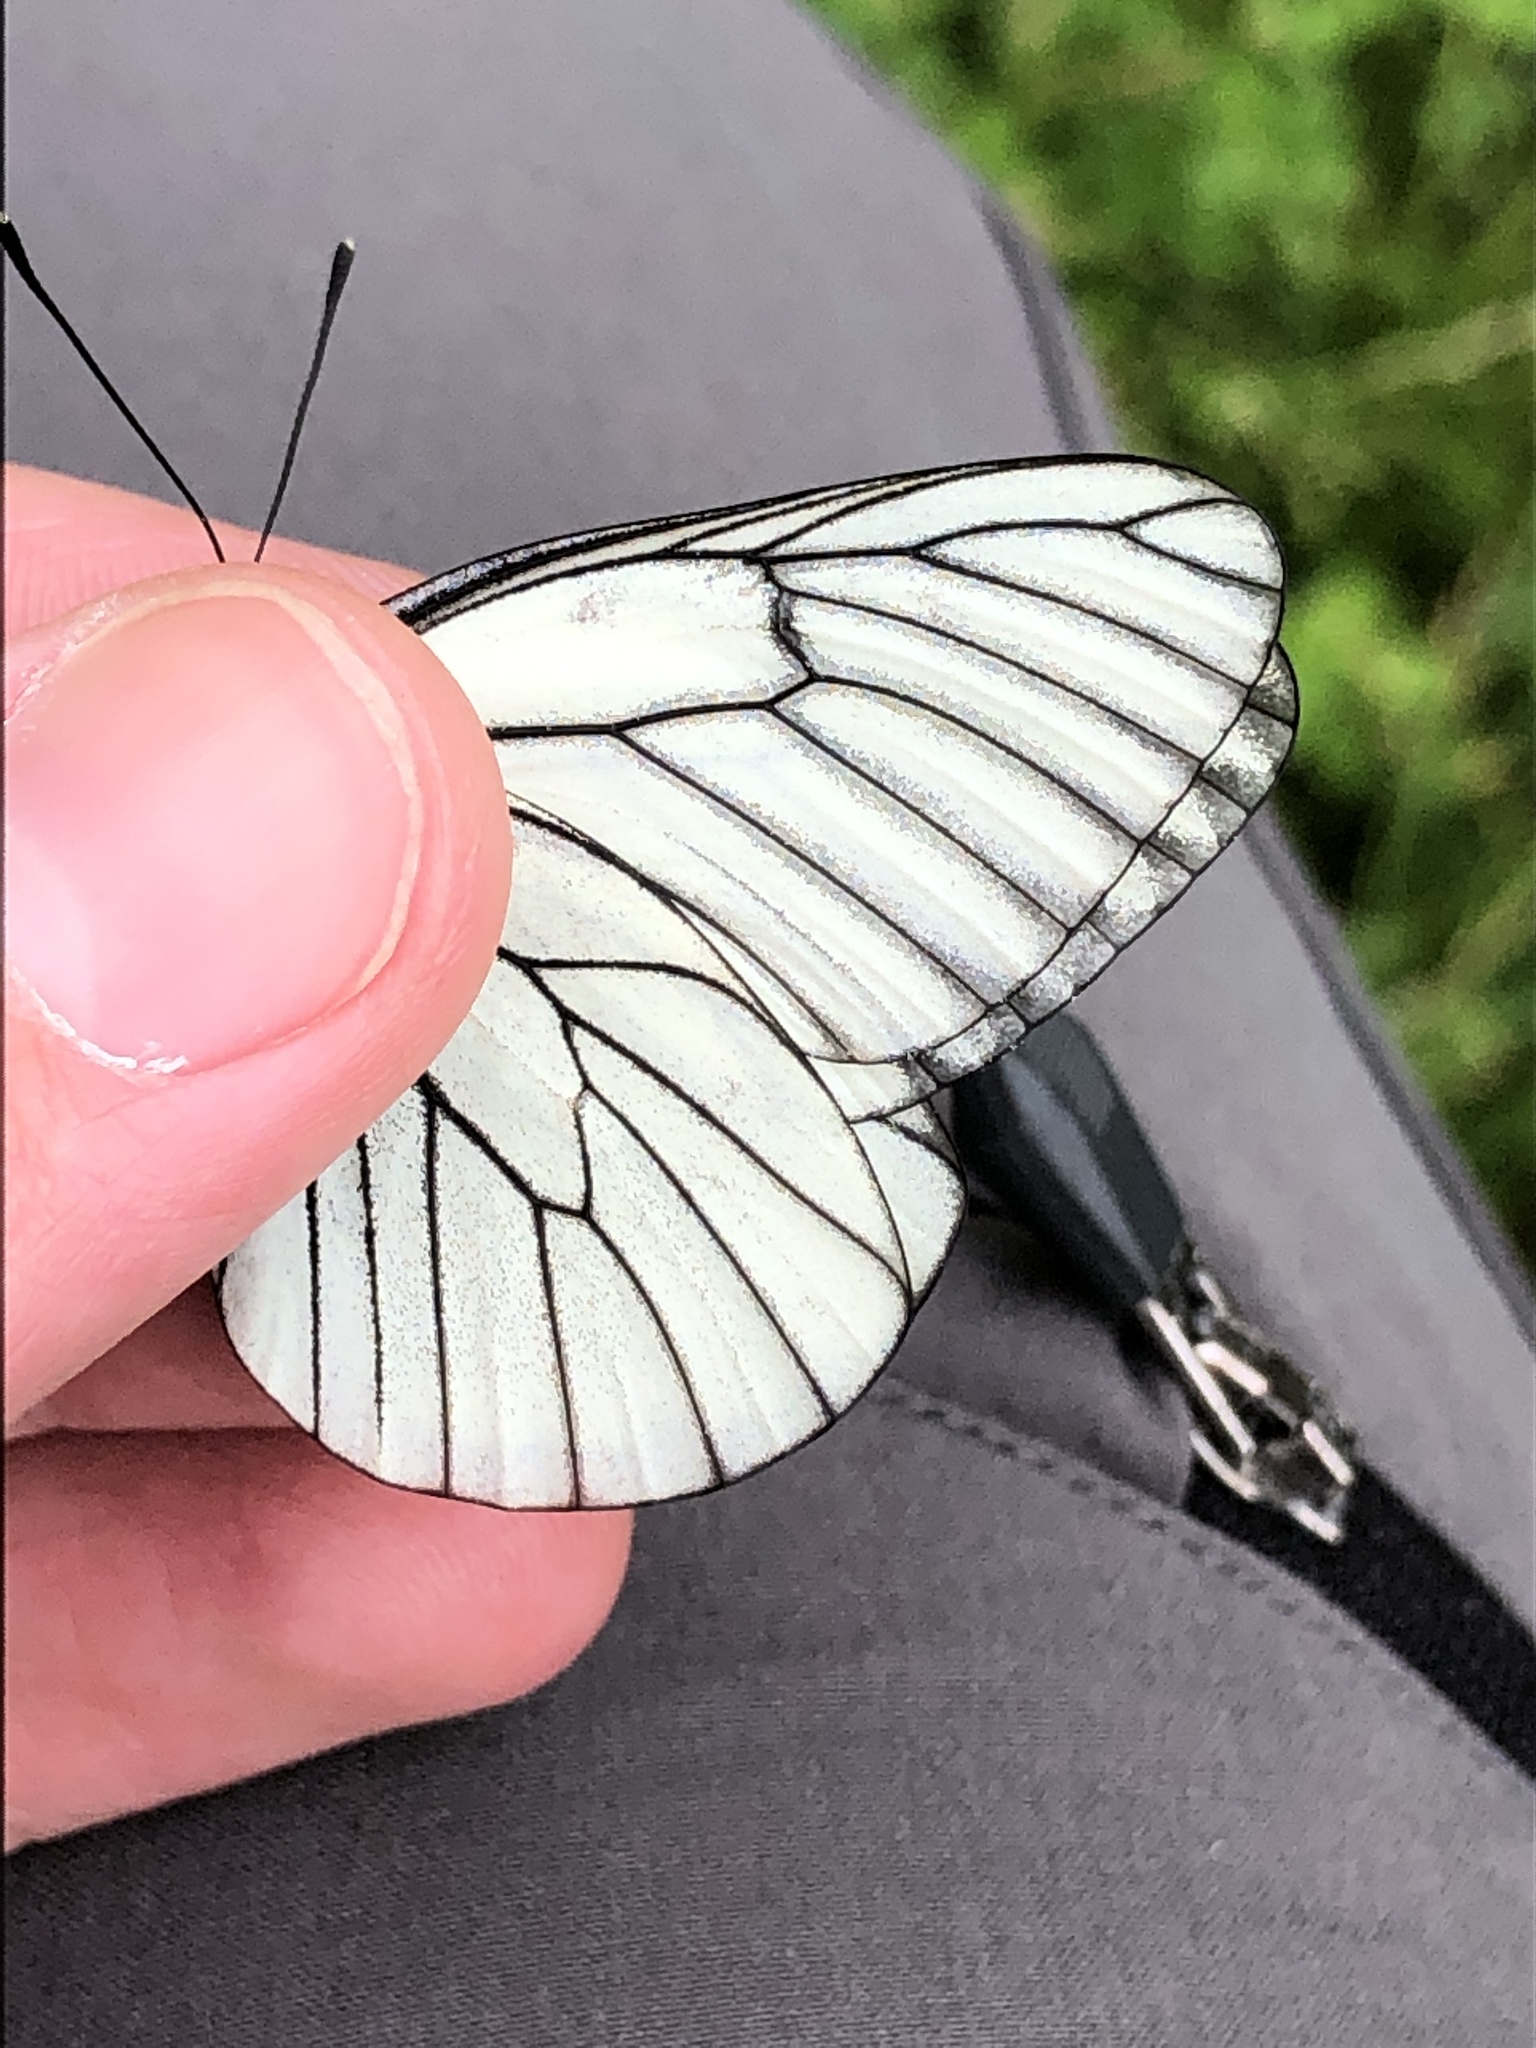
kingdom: Animalia
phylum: Arthropoda
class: Insecta
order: Lepidoptera
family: Pieridae
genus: Aporia
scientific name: Aporia crataegi
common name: Black-veined white
